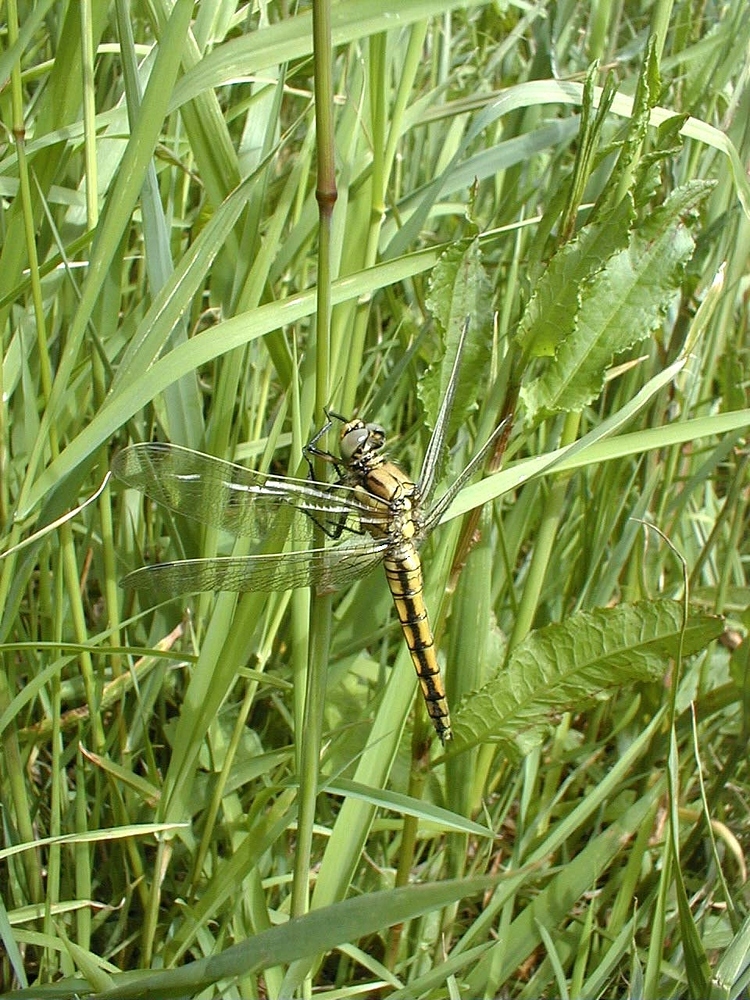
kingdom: Animalia
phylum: Arthropoda
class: Insecta
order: Odonata
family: Libellulidae
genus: Orthetrum
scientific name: Orthetrum cancellatum
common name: Black-tailed skimmer
